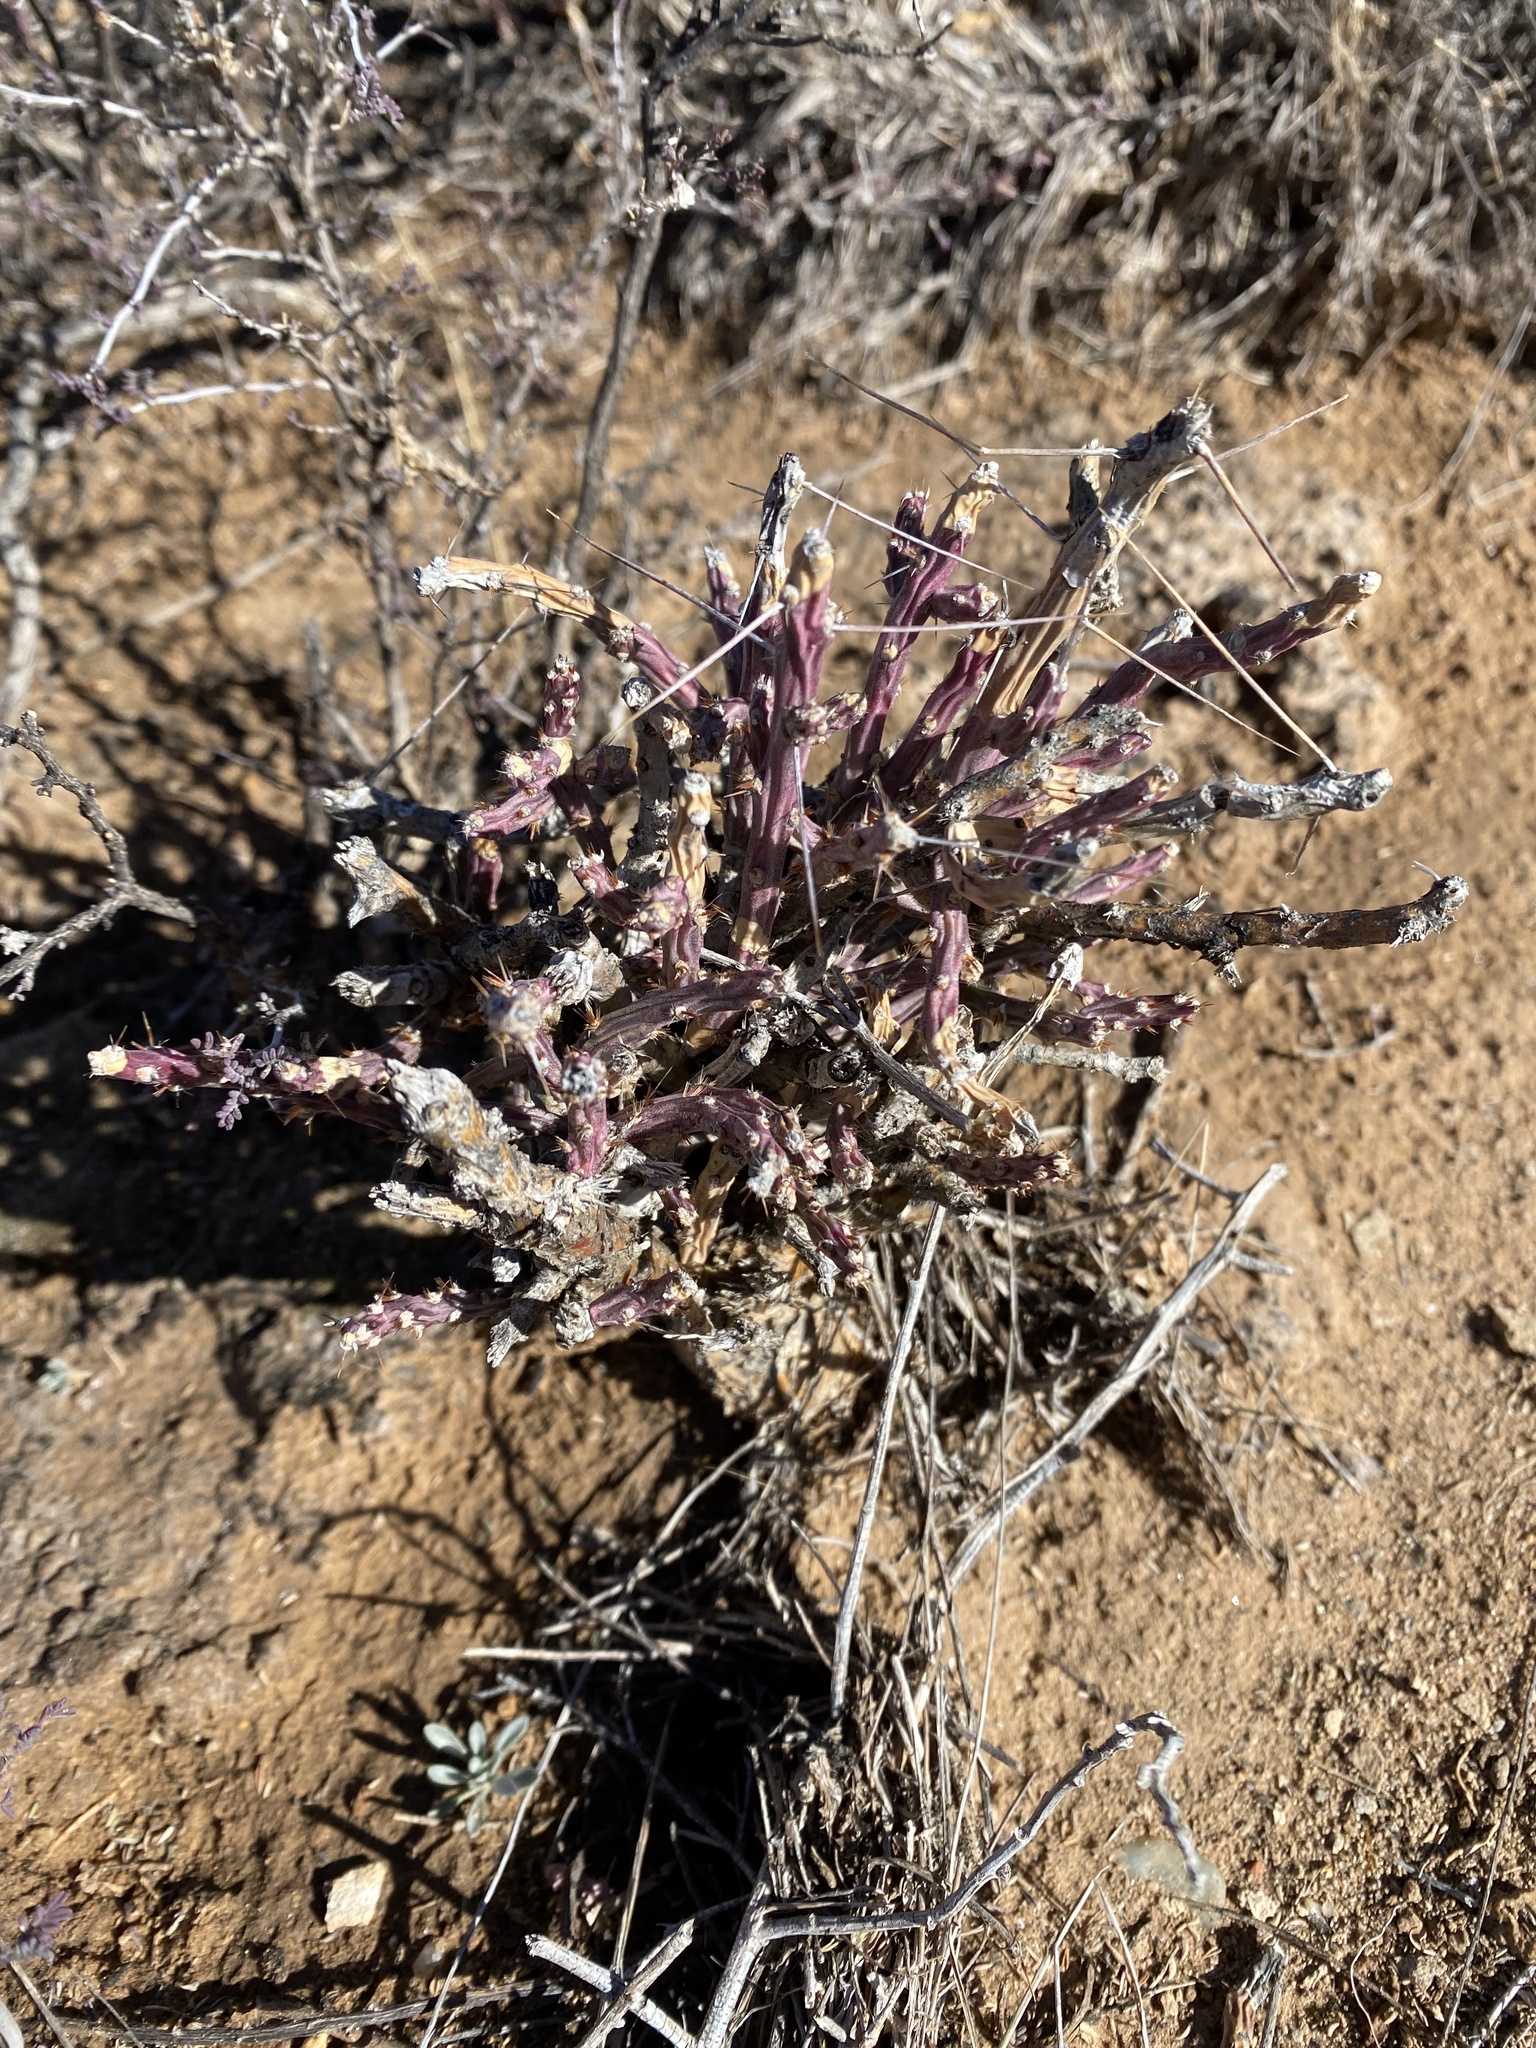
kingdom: Plantae
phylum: Tracheophyta
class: Magnoliopsida
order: Caryophyllales
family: Cactaceae
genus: Cylindropuntia
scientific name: Cylindropuntia leptocaulis
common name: Christmas cactus
